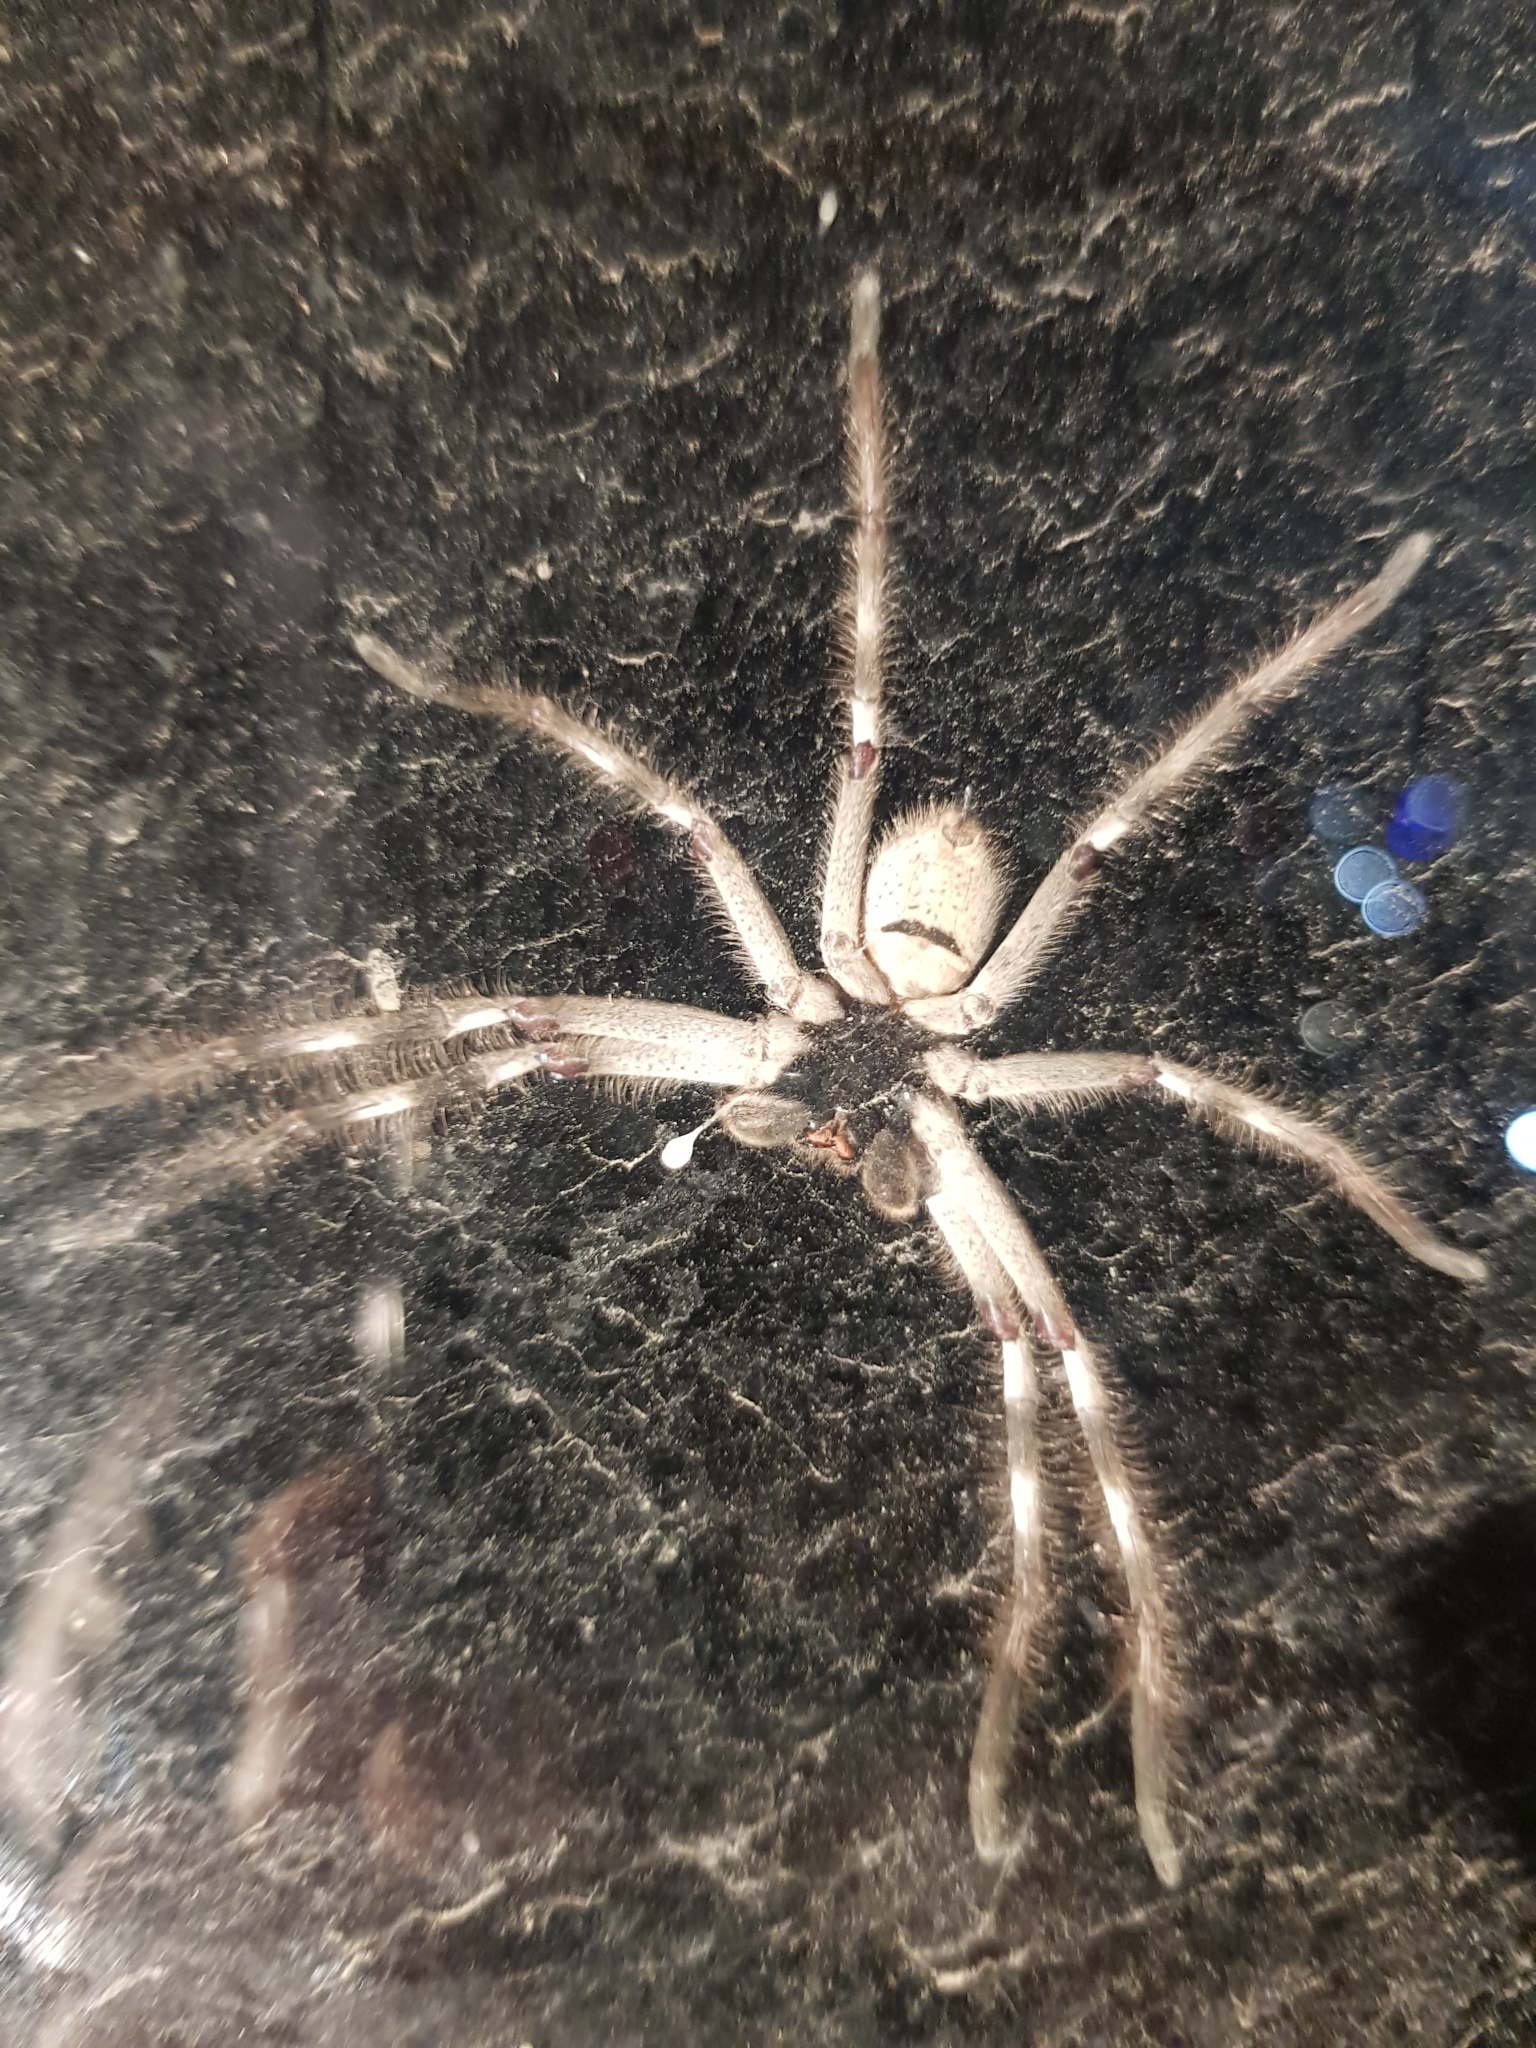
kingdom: Animalia
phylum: Arthropoda
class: Arachnida
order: Araneae
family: Sparassidae
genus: Isopedella
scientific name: Isopedella victorialis
